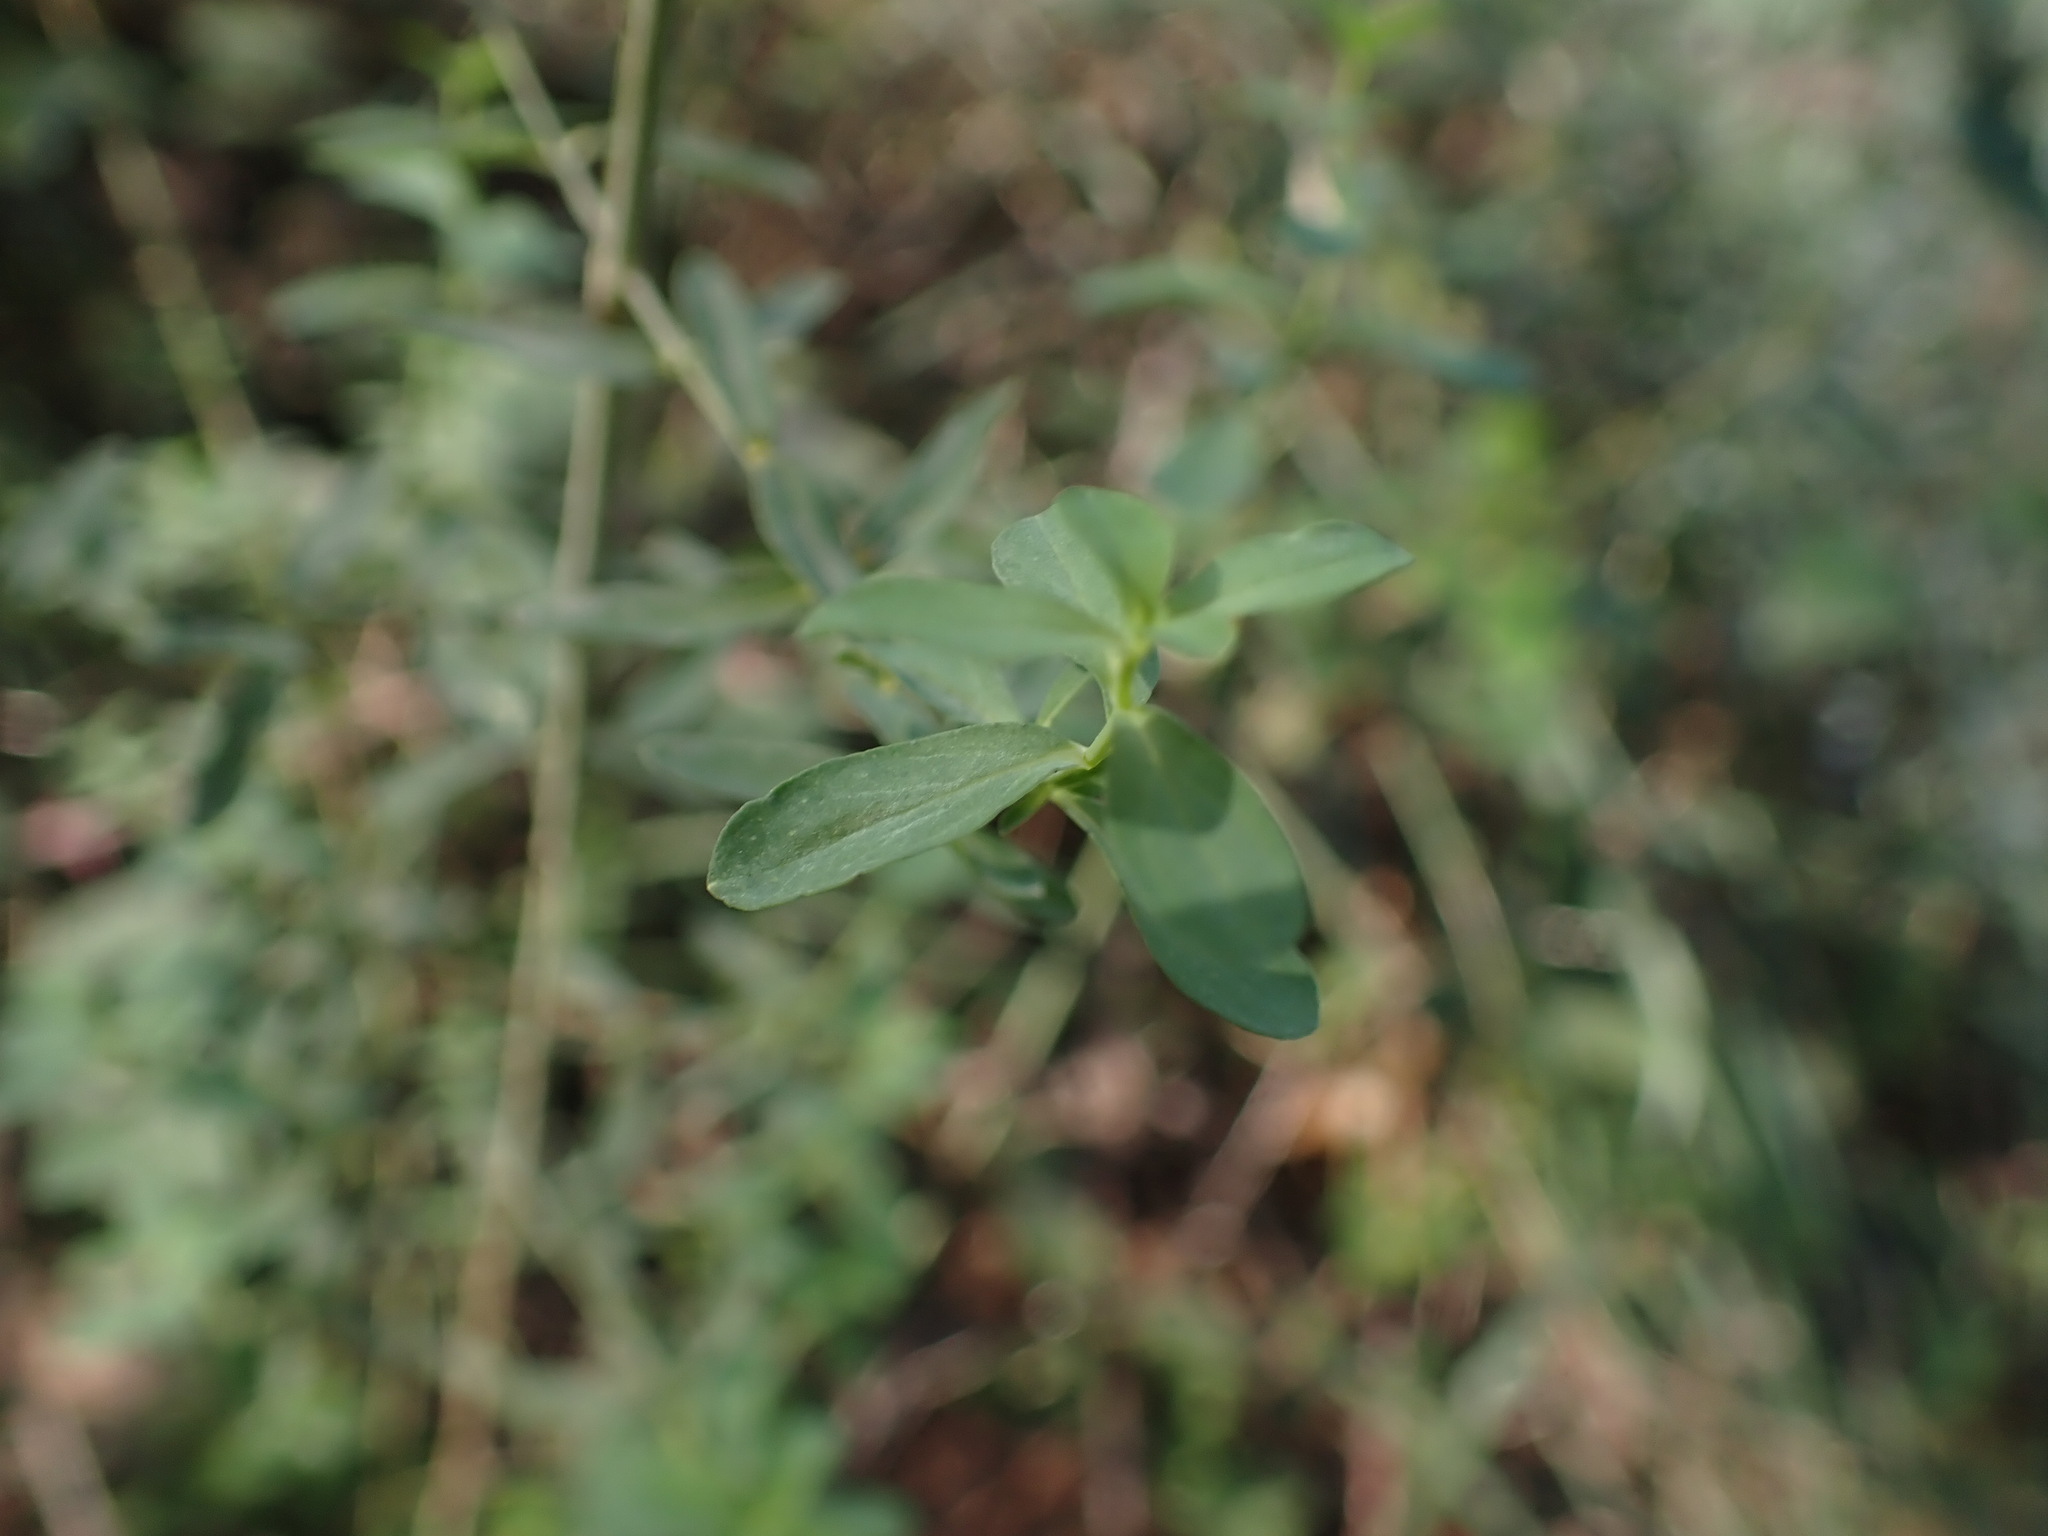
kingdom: Plantae
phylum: Tracheophyta
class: Magnoliopsida
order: Malpighiales
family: Hypericaceae
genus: Hypericum
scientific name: Hypericum perforatum
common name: Common st. johnswort
